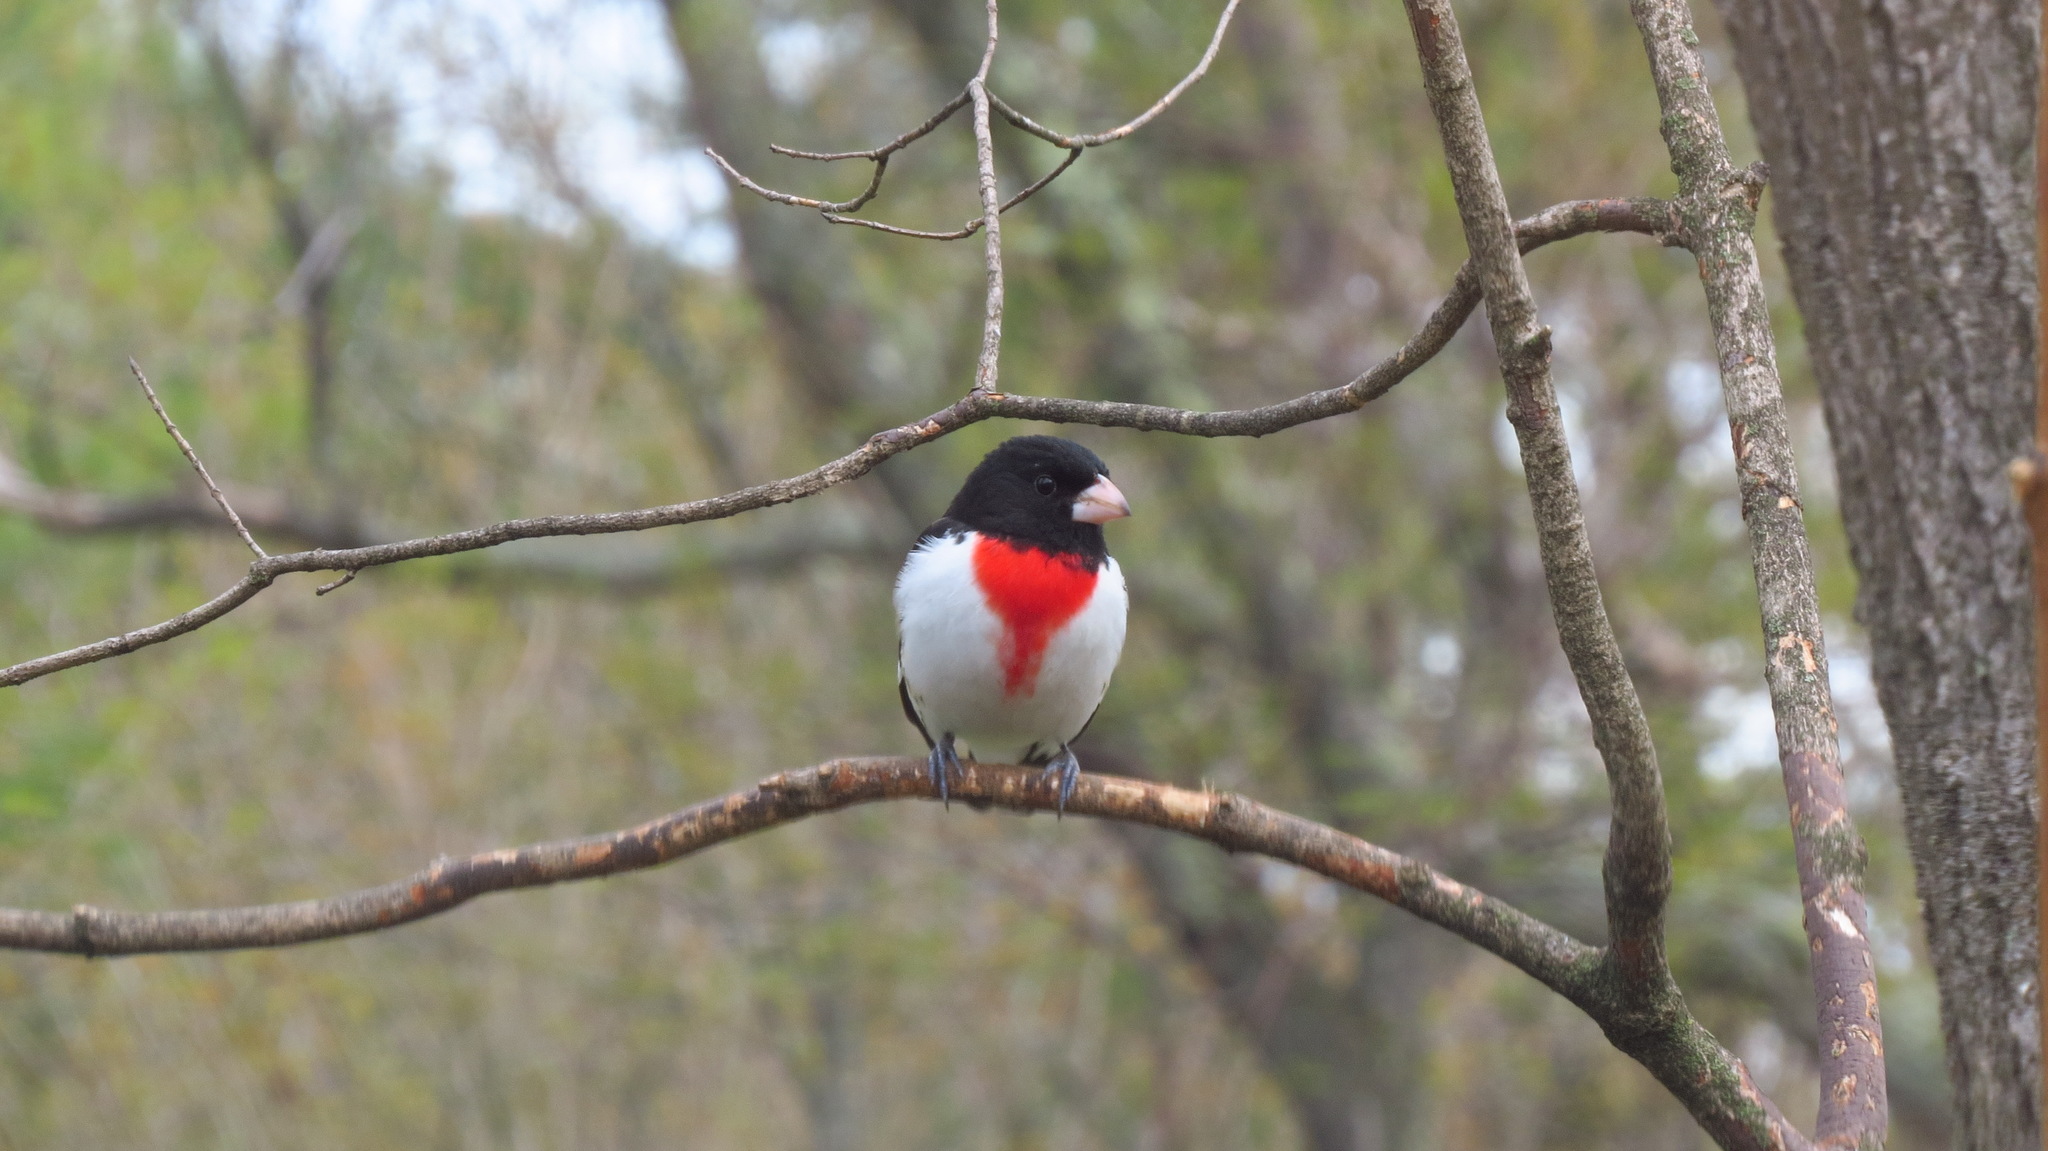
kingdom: Animalia
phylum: Chordata
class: Aves
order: Passeriformes
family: Cardinalidae
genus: Pheucticus
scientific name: Pheucticus ludovicianus
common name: Rose-breasted grosbeak
